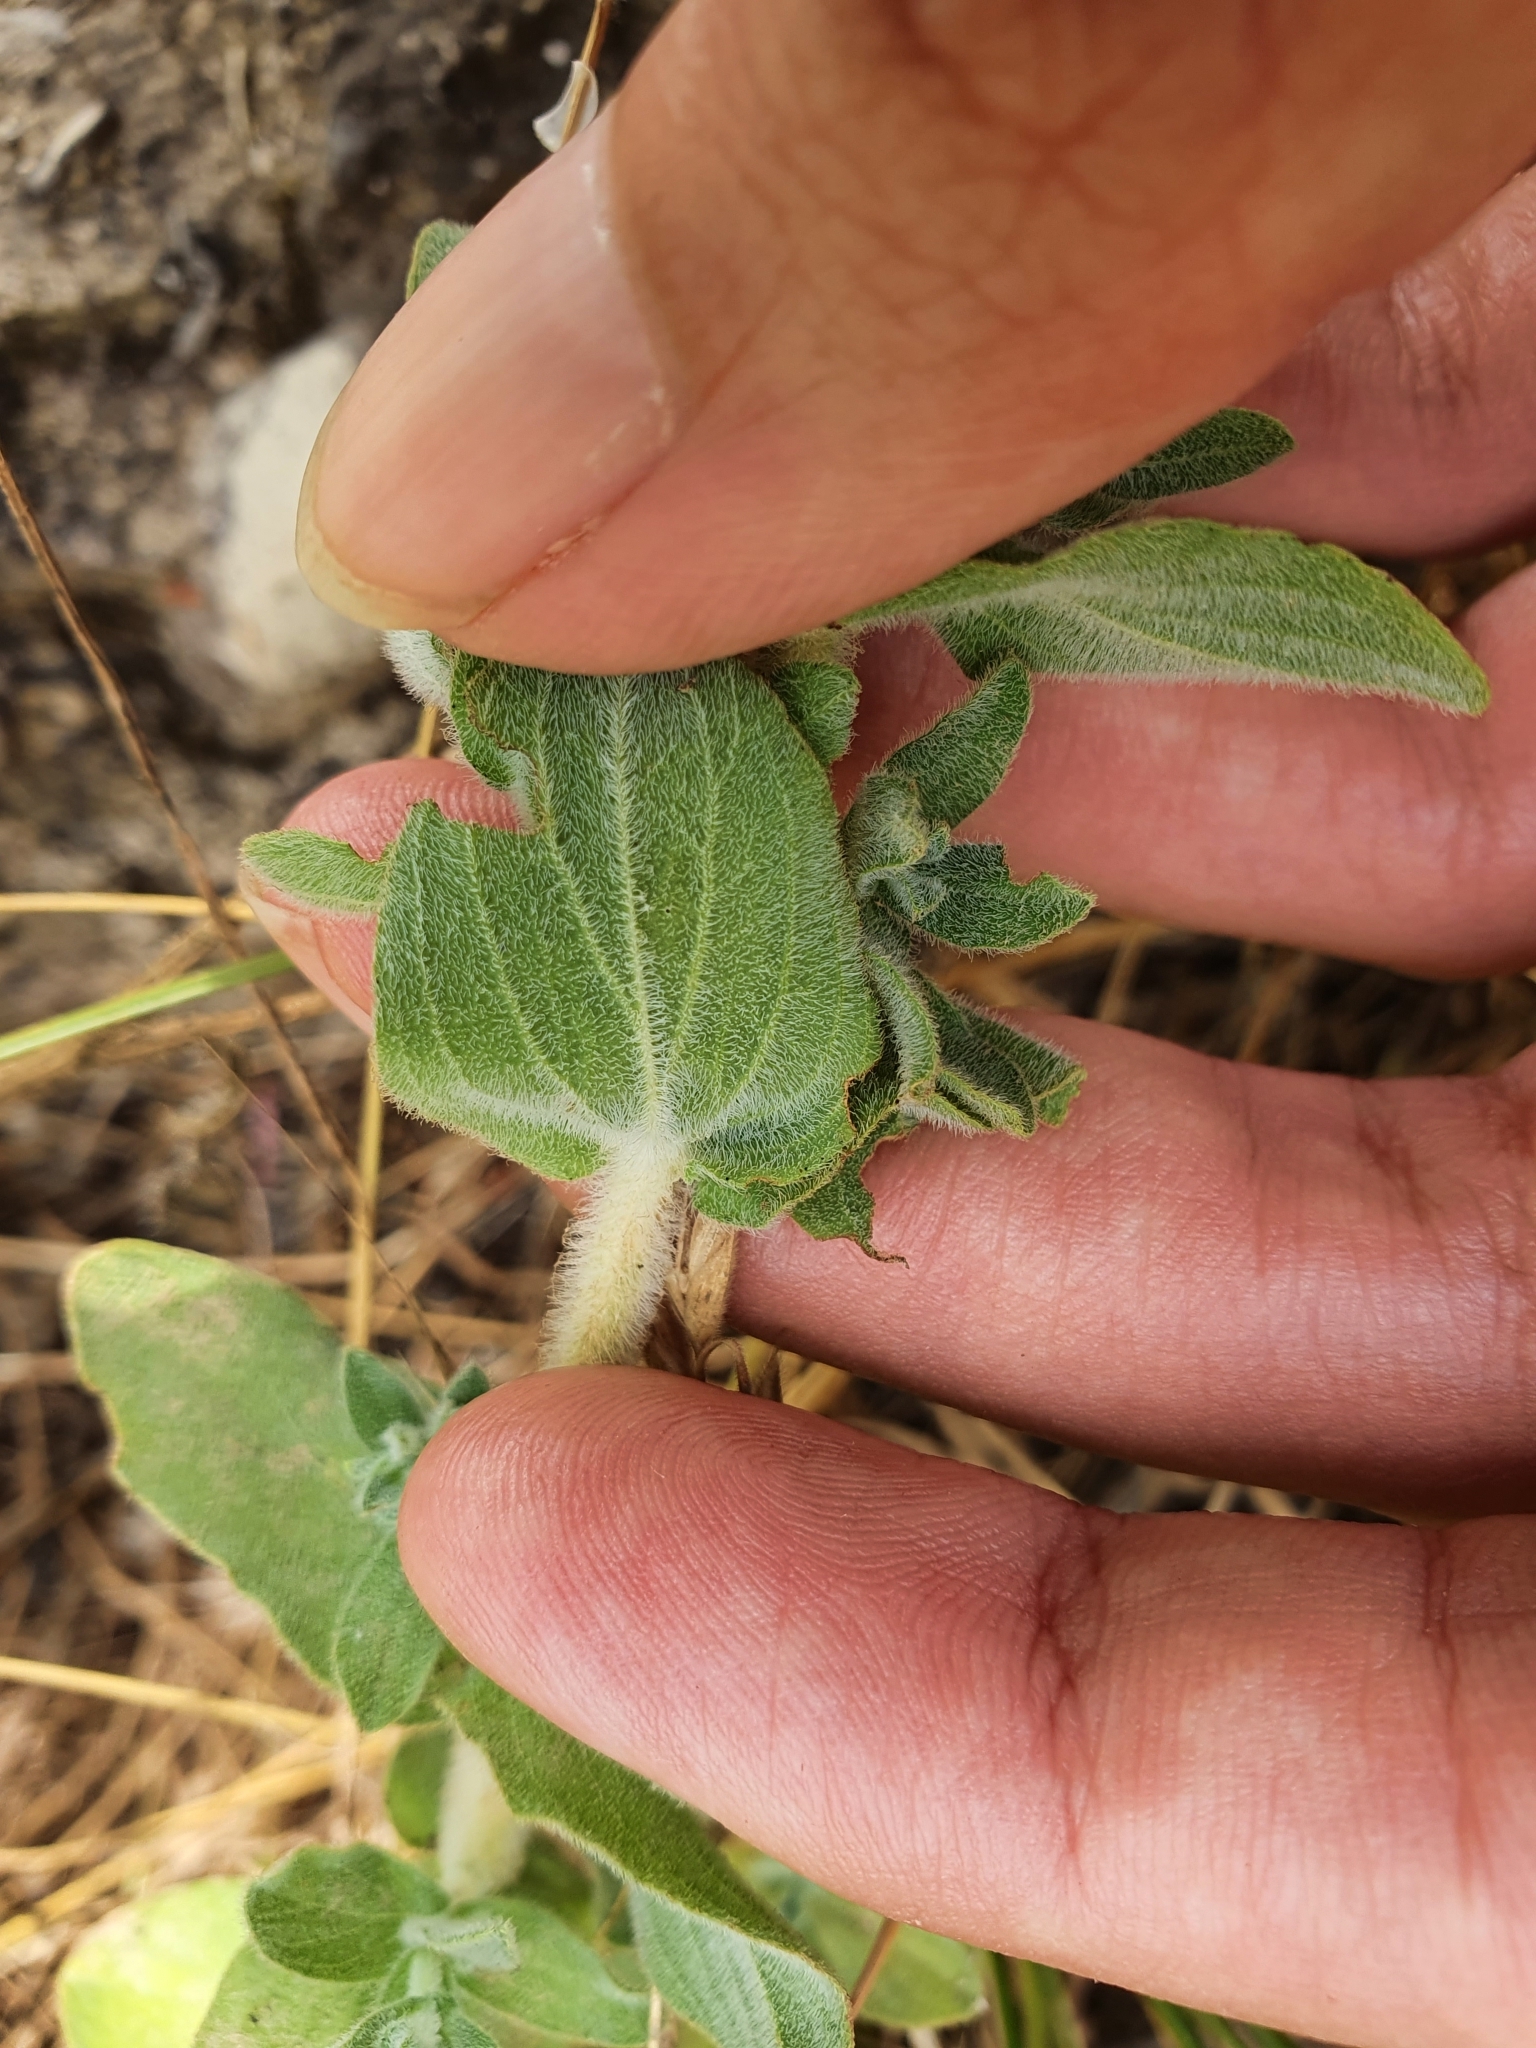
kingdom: Plantae
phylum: Tracheophyta
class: Magnoliopsida
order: Malpighiales
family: Hypericaceae
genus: Hypericum
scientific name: Hypericum pubescens
